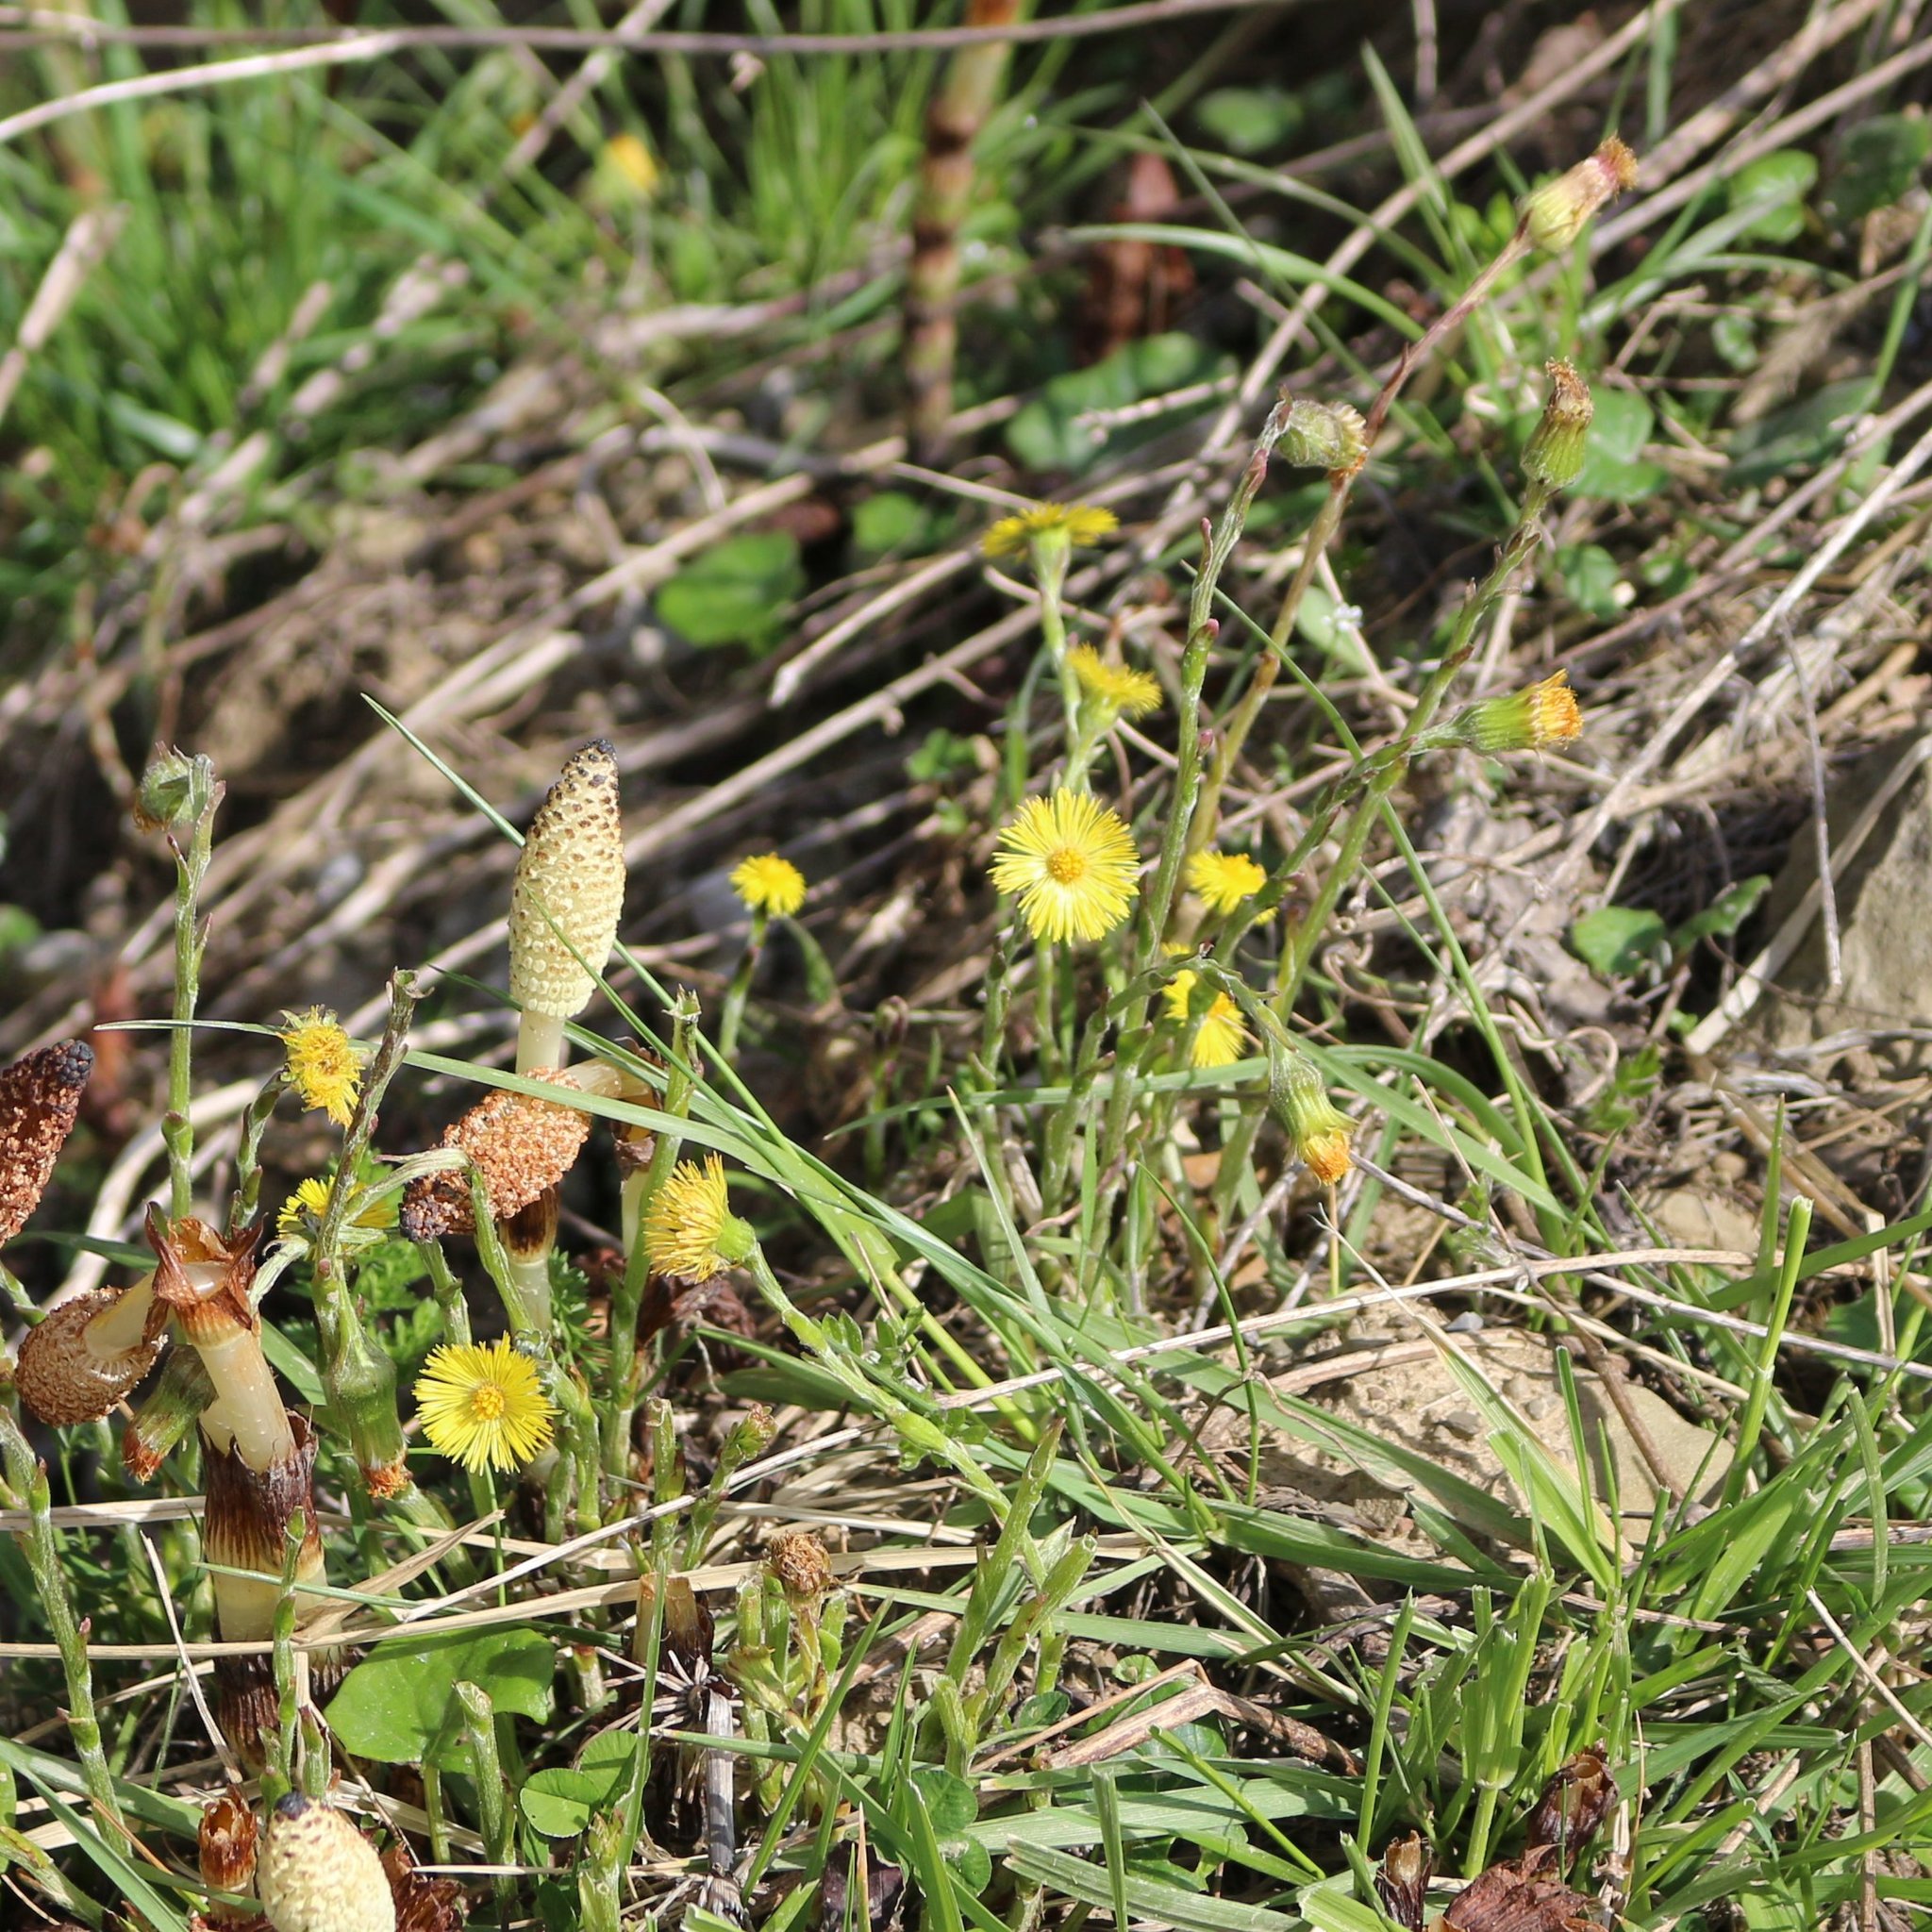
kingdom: Plantae
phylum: Tracheophyta
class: Magnoliopsida
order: Asterales
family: Asteraceae
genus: Tussilago
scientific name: Tussilago farfara
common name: Coltsfoot
